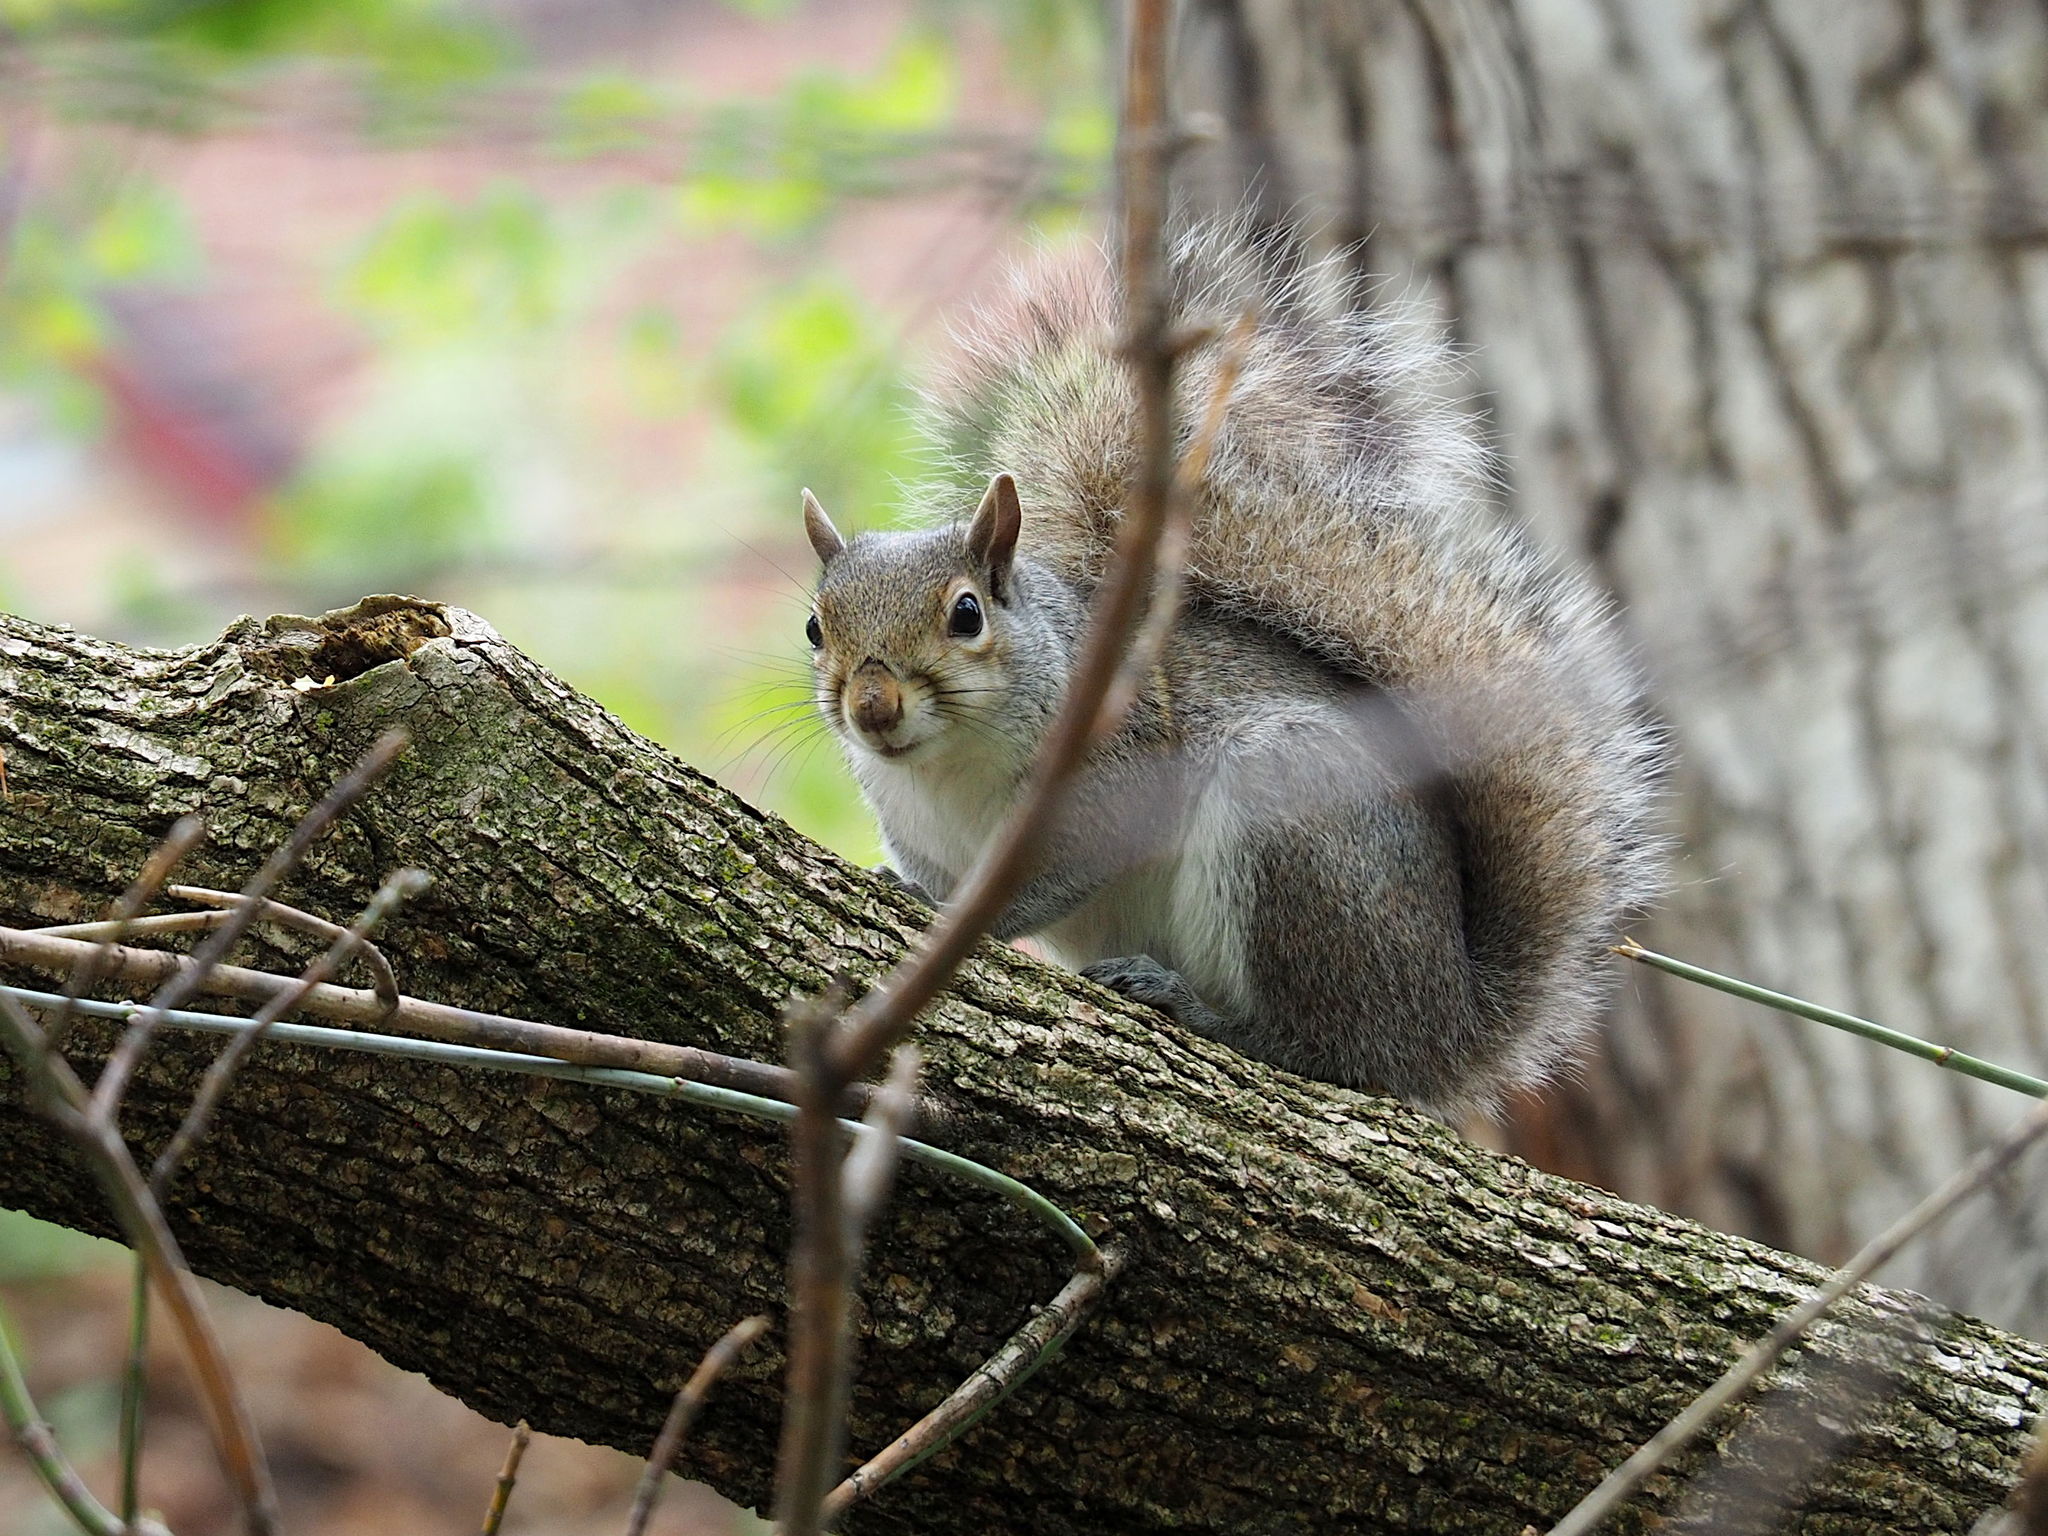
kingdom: Animalia
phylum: Chordata
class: Mammalia
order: Rodentia
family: Sciuridae
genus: Sciurus
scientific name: Sciurus carolinensis
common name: Eastern gray squirrel
